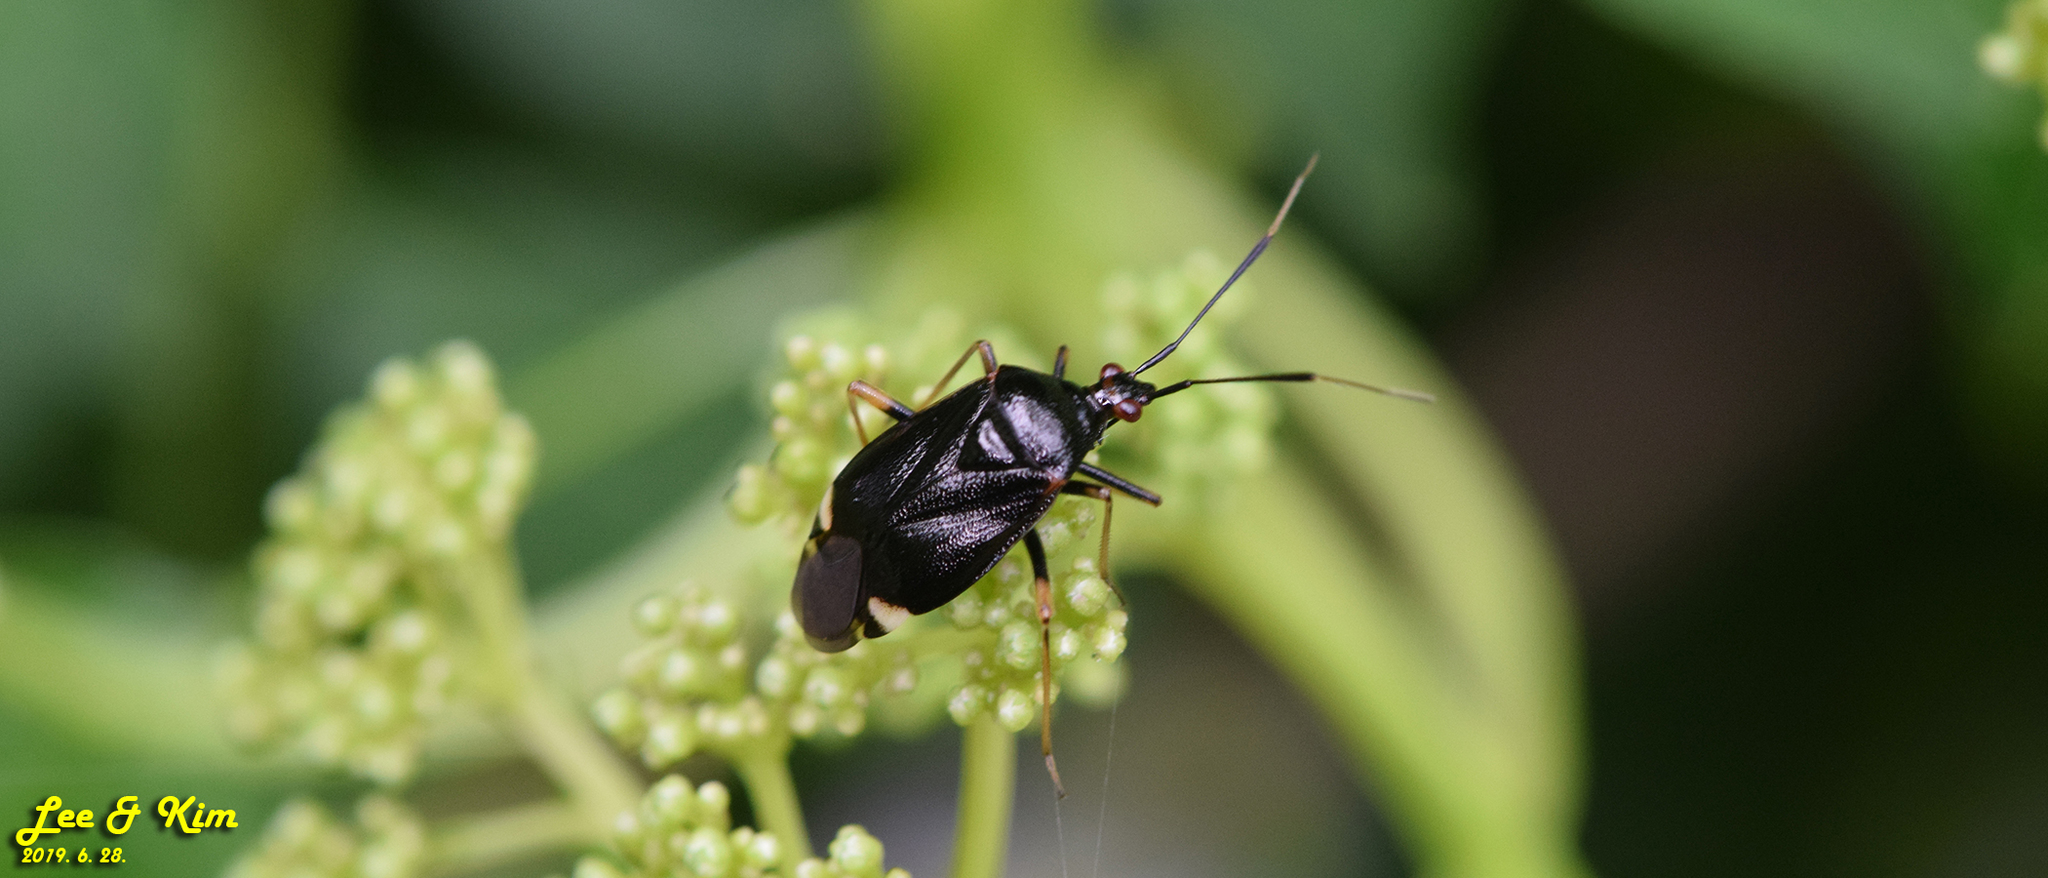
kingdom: Animalia
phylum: Arthropoda
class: Insecta
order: Hemiptera
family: Miridae
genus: Deraeocoris
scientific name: Deraeocoris ater
